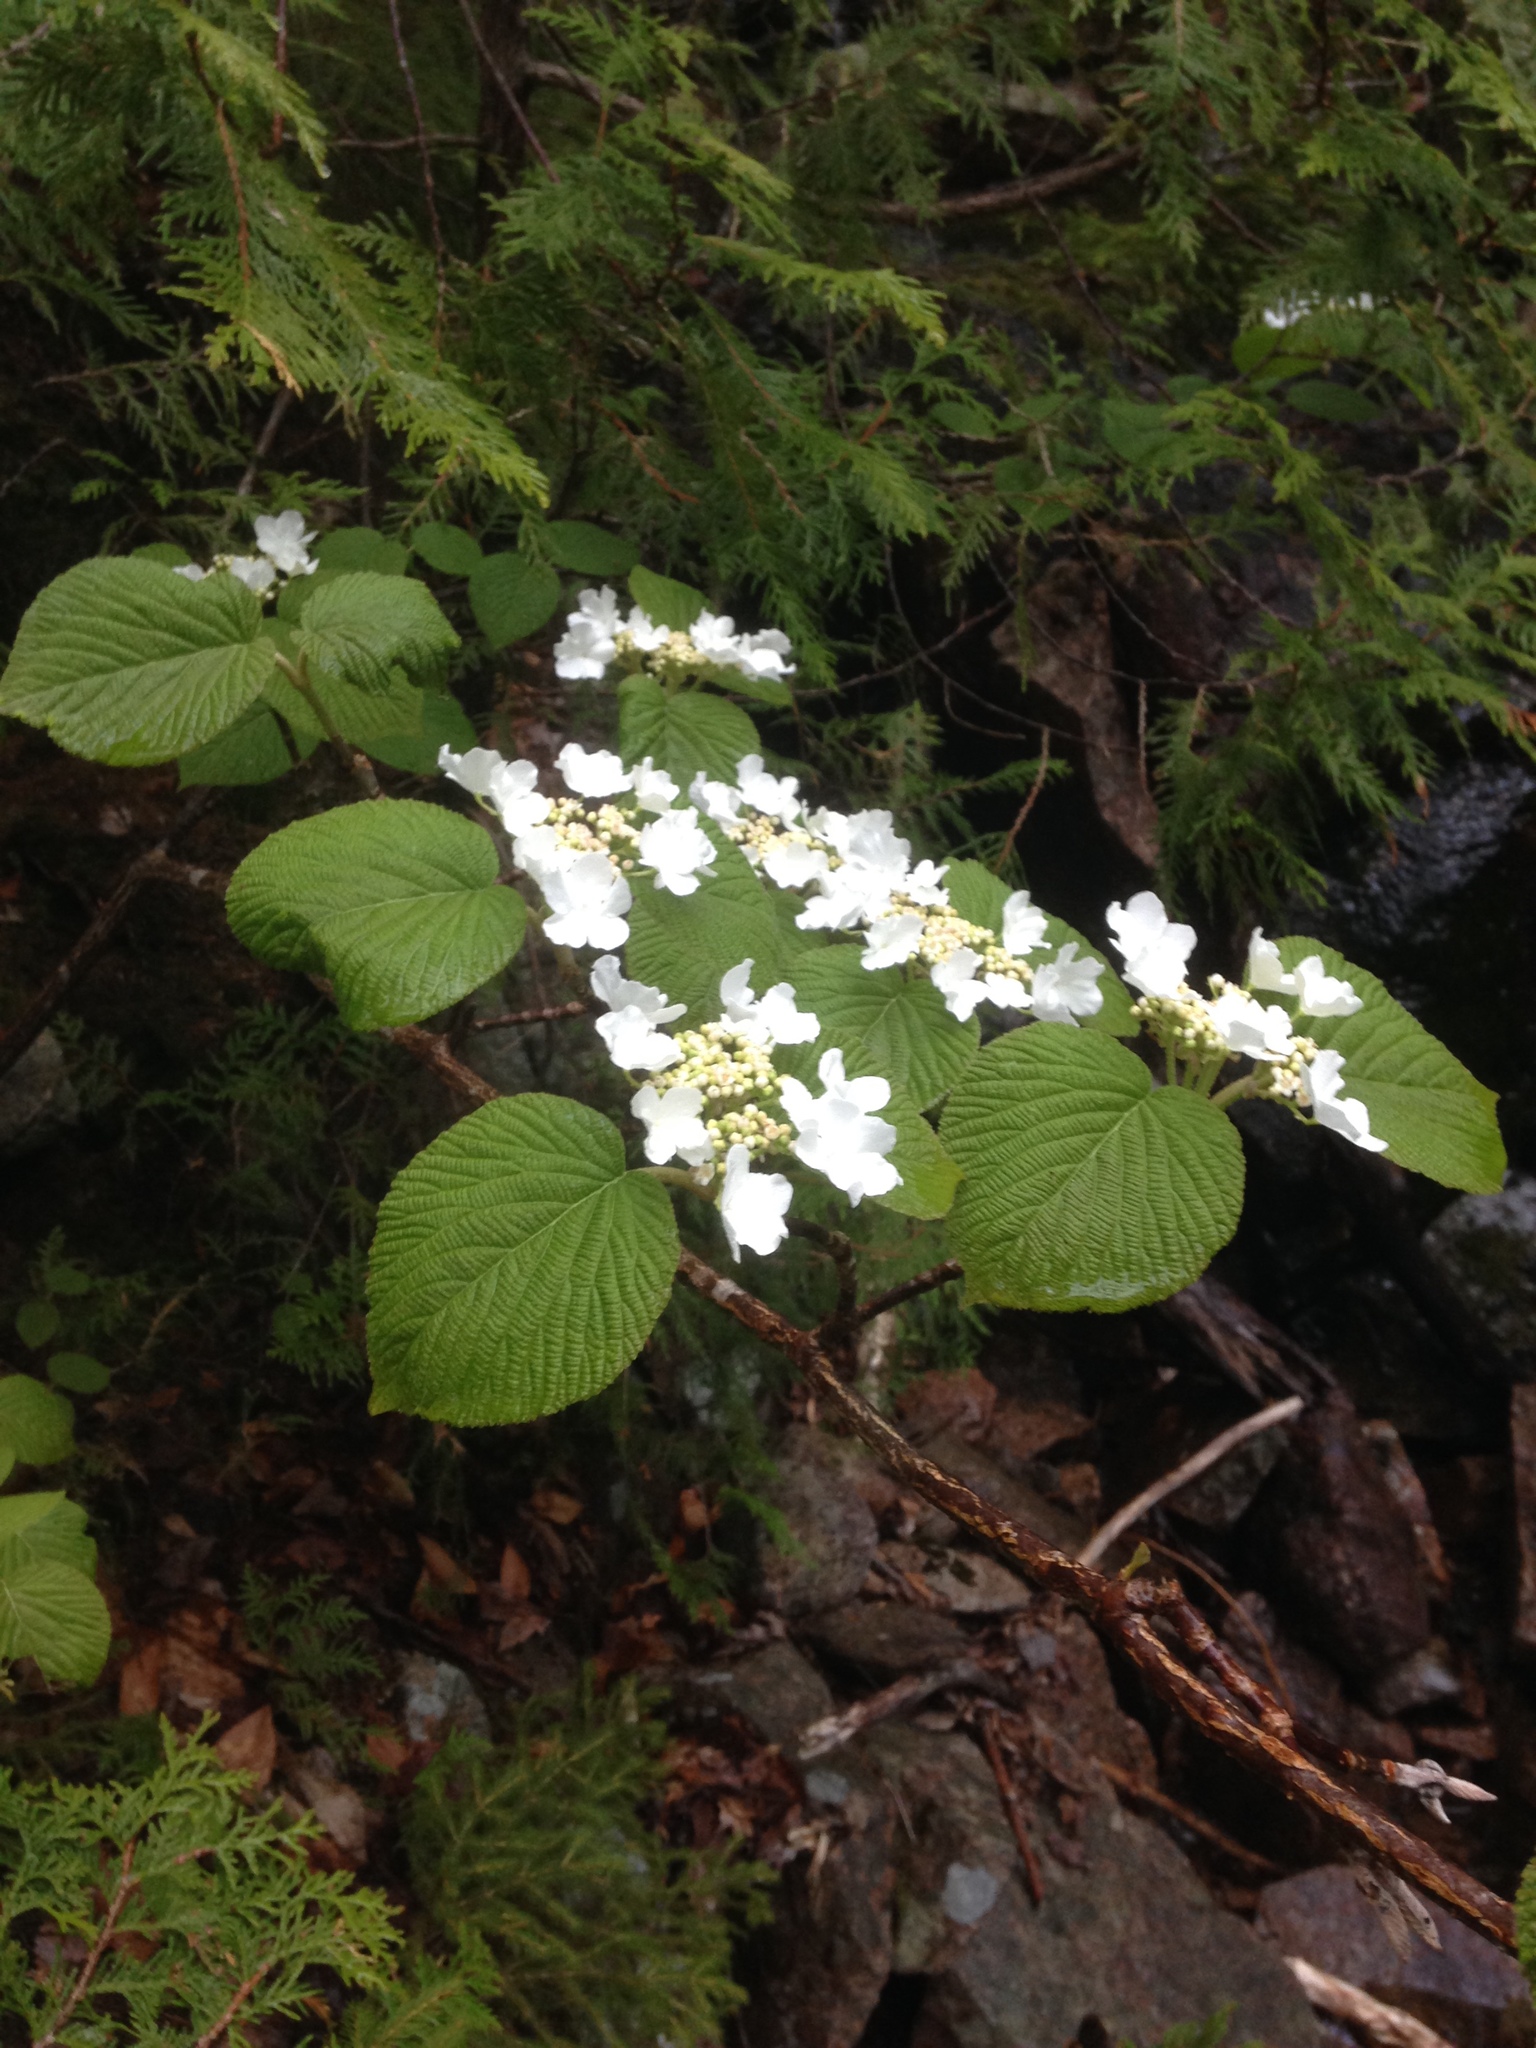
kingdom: Plantae
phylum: Tracheophyta
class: Magnoliopsida
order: Dipsacales
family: Viburnaceae
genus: Viburnum
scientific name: Viburnum lantanoides
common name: Hobblebush
